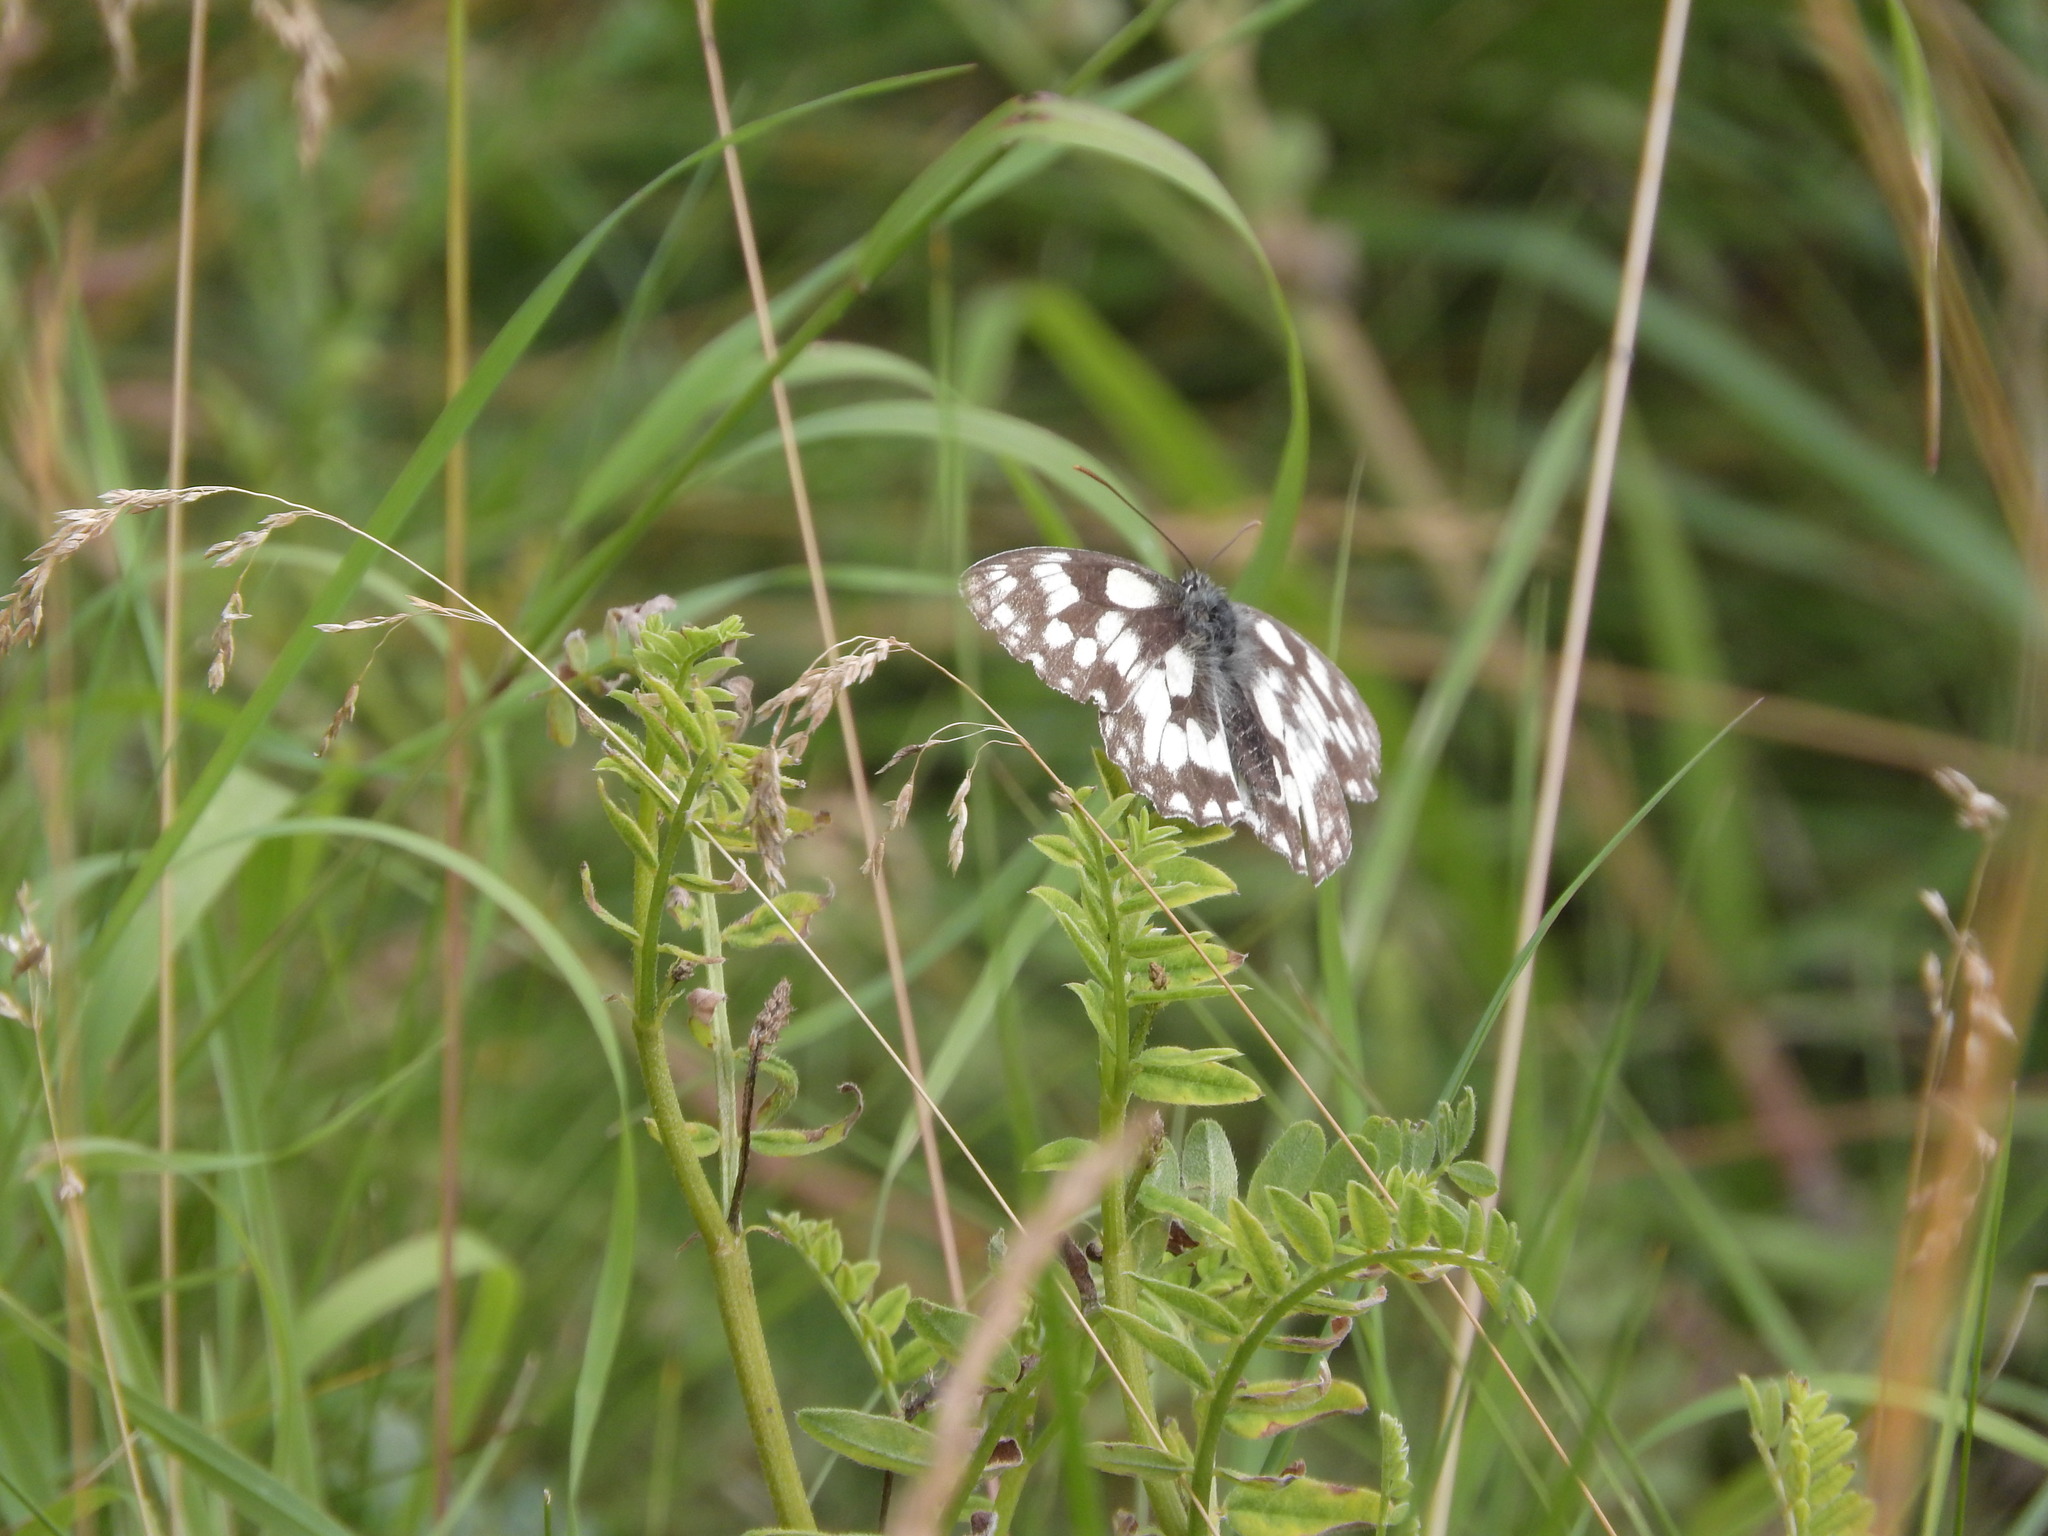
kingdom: Animalia
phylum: Arthropoda
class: Insecta
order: Lepidoptera
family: Nymphalidae
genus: Melanargia
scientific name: Melanargia galathea
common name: Marbled white
